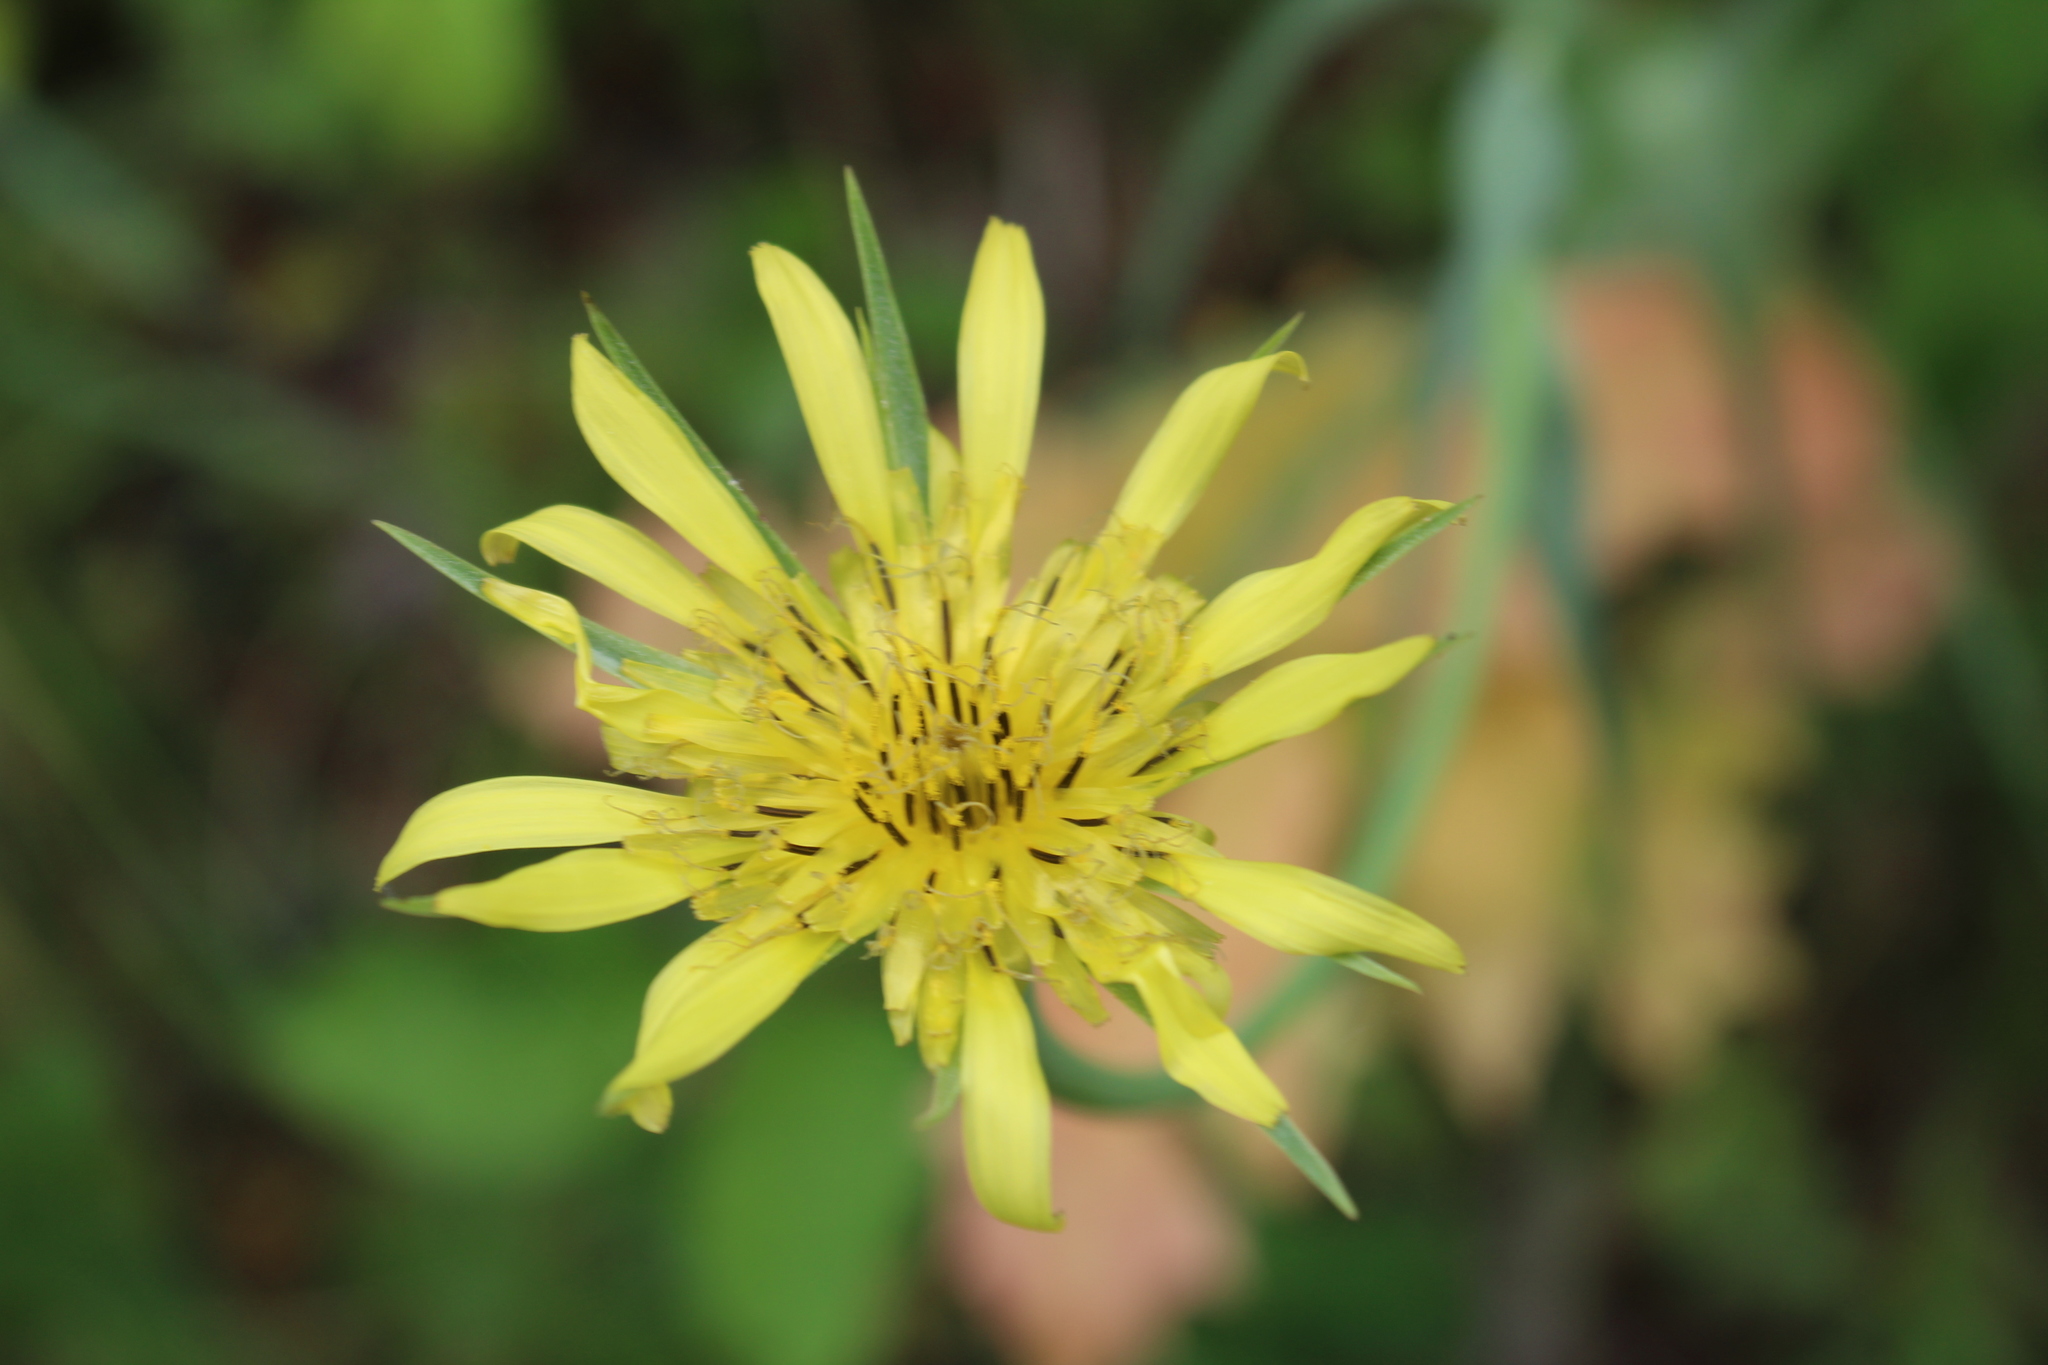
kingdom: Plantae
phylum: Tracheophyta
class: Magnoliopsida
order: Asterales
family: Asteraceae
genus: Tragopogon
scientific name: Tragopogon dubius
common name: Yellow salsify
